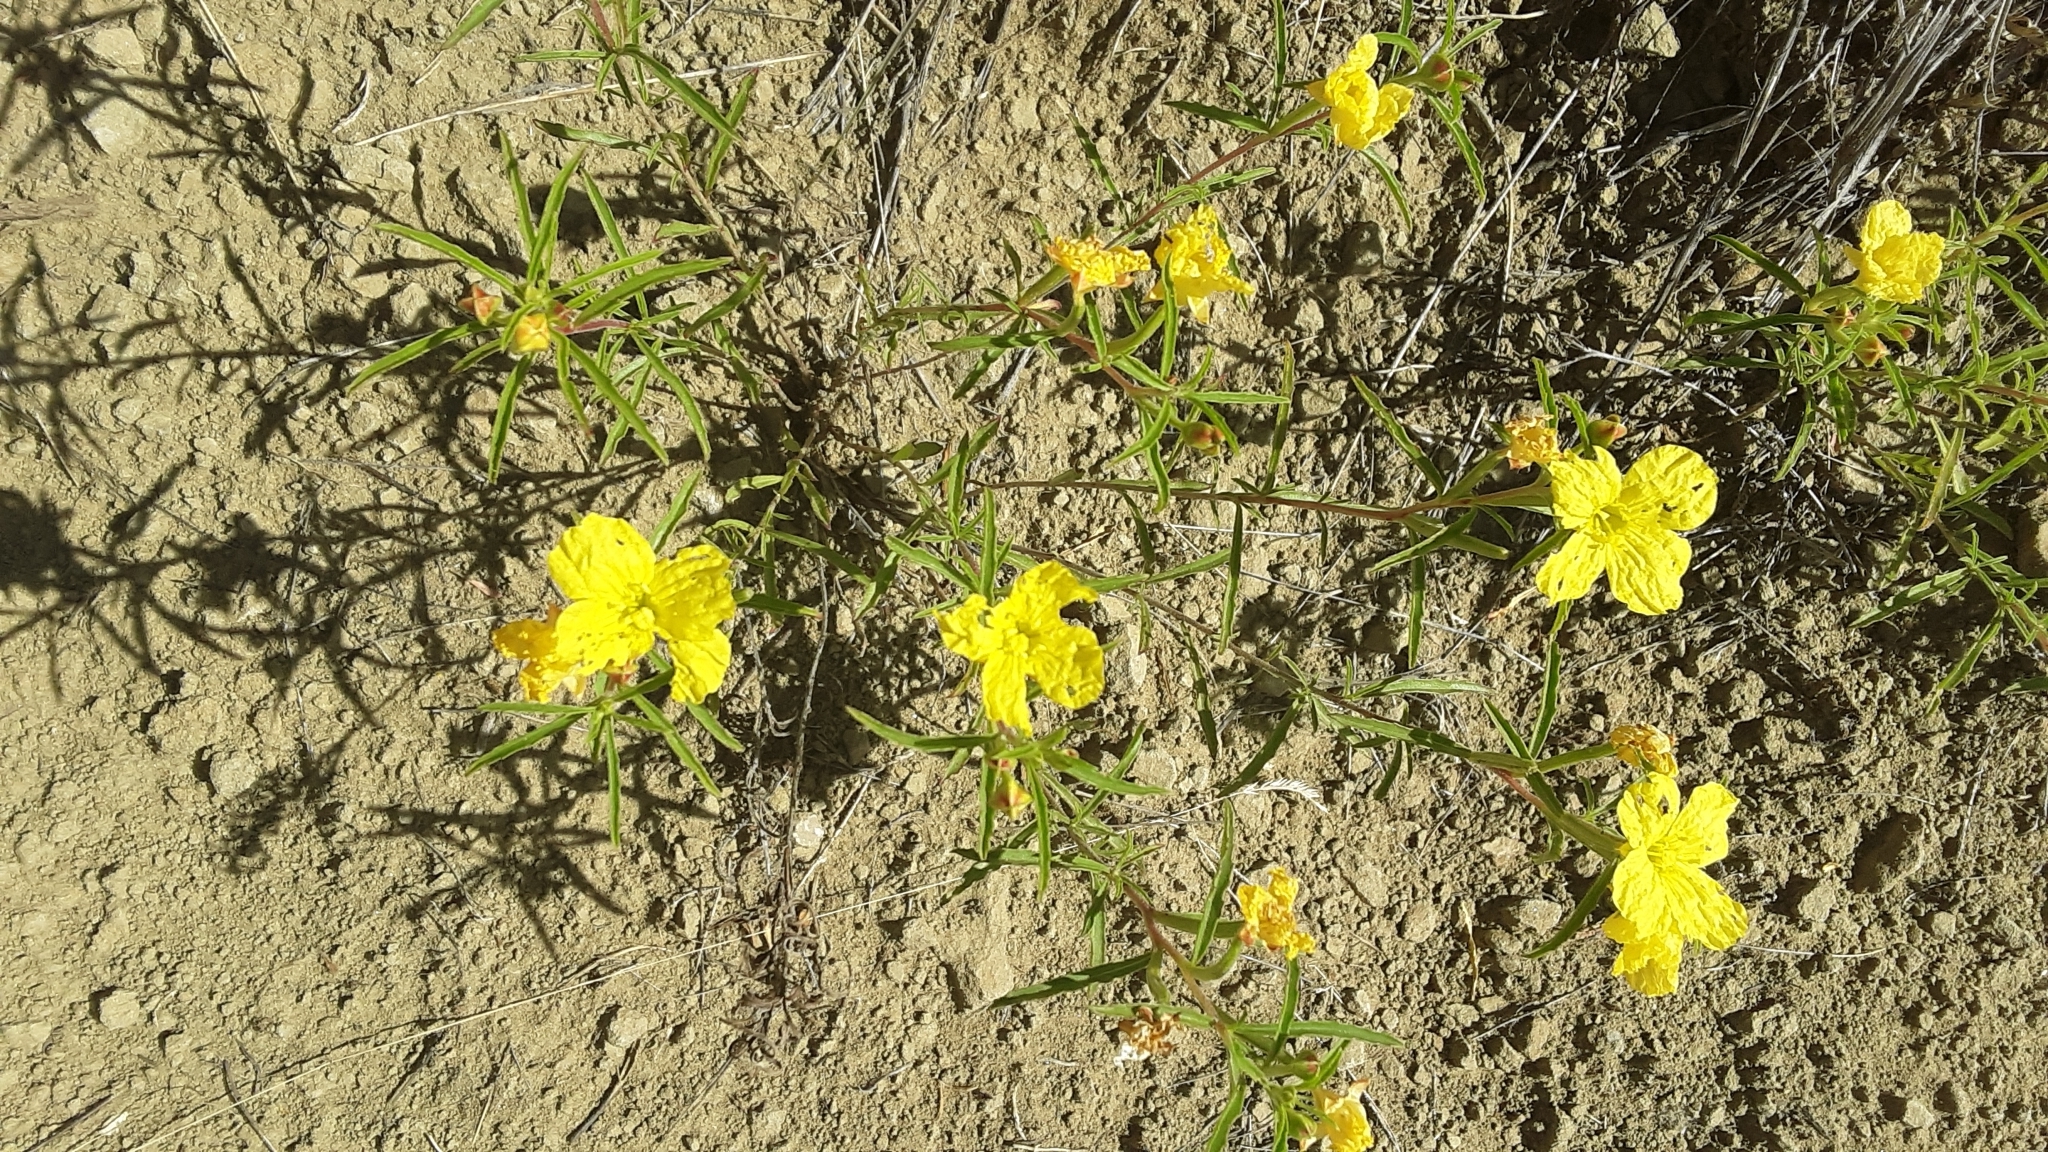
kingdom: Plantae
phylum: Tracheophyta
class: Magnoliopsida
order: Myrtales
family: Onagraceae
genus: Oenothera
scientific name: Oenothera serrulata
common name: Half-shrub calylophus
